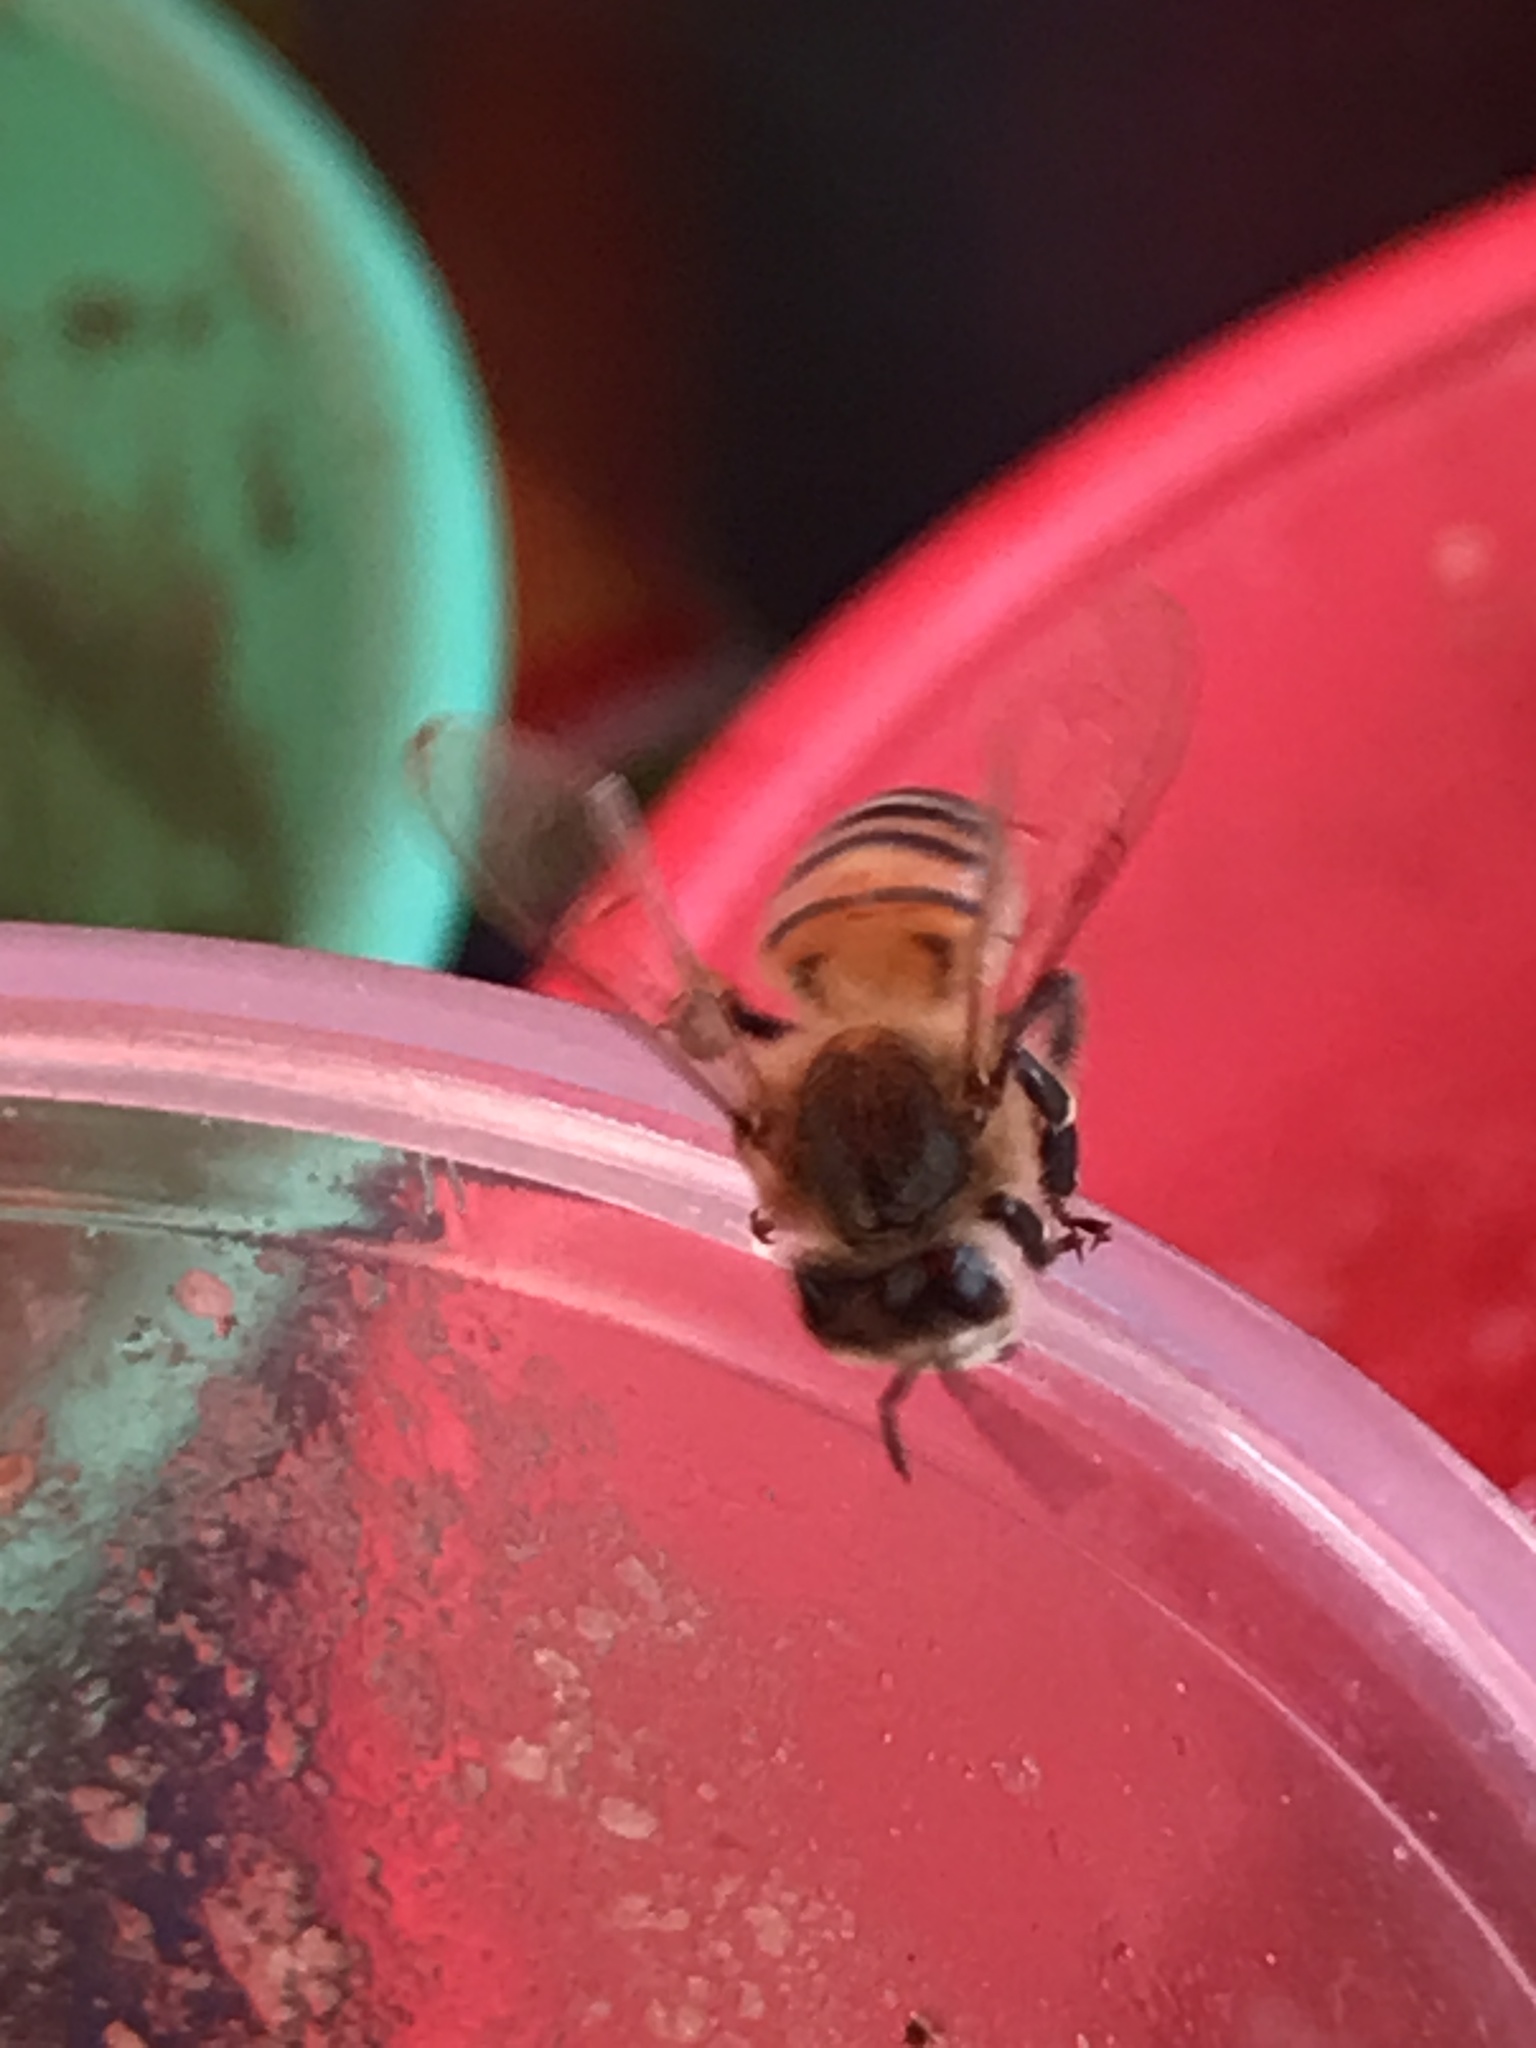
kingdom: Animalia
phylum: Arthropoda
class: Insecta
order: Hymenoptera
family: Apidae
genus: Apis
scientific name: Apis mellifera
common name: Honey bee
